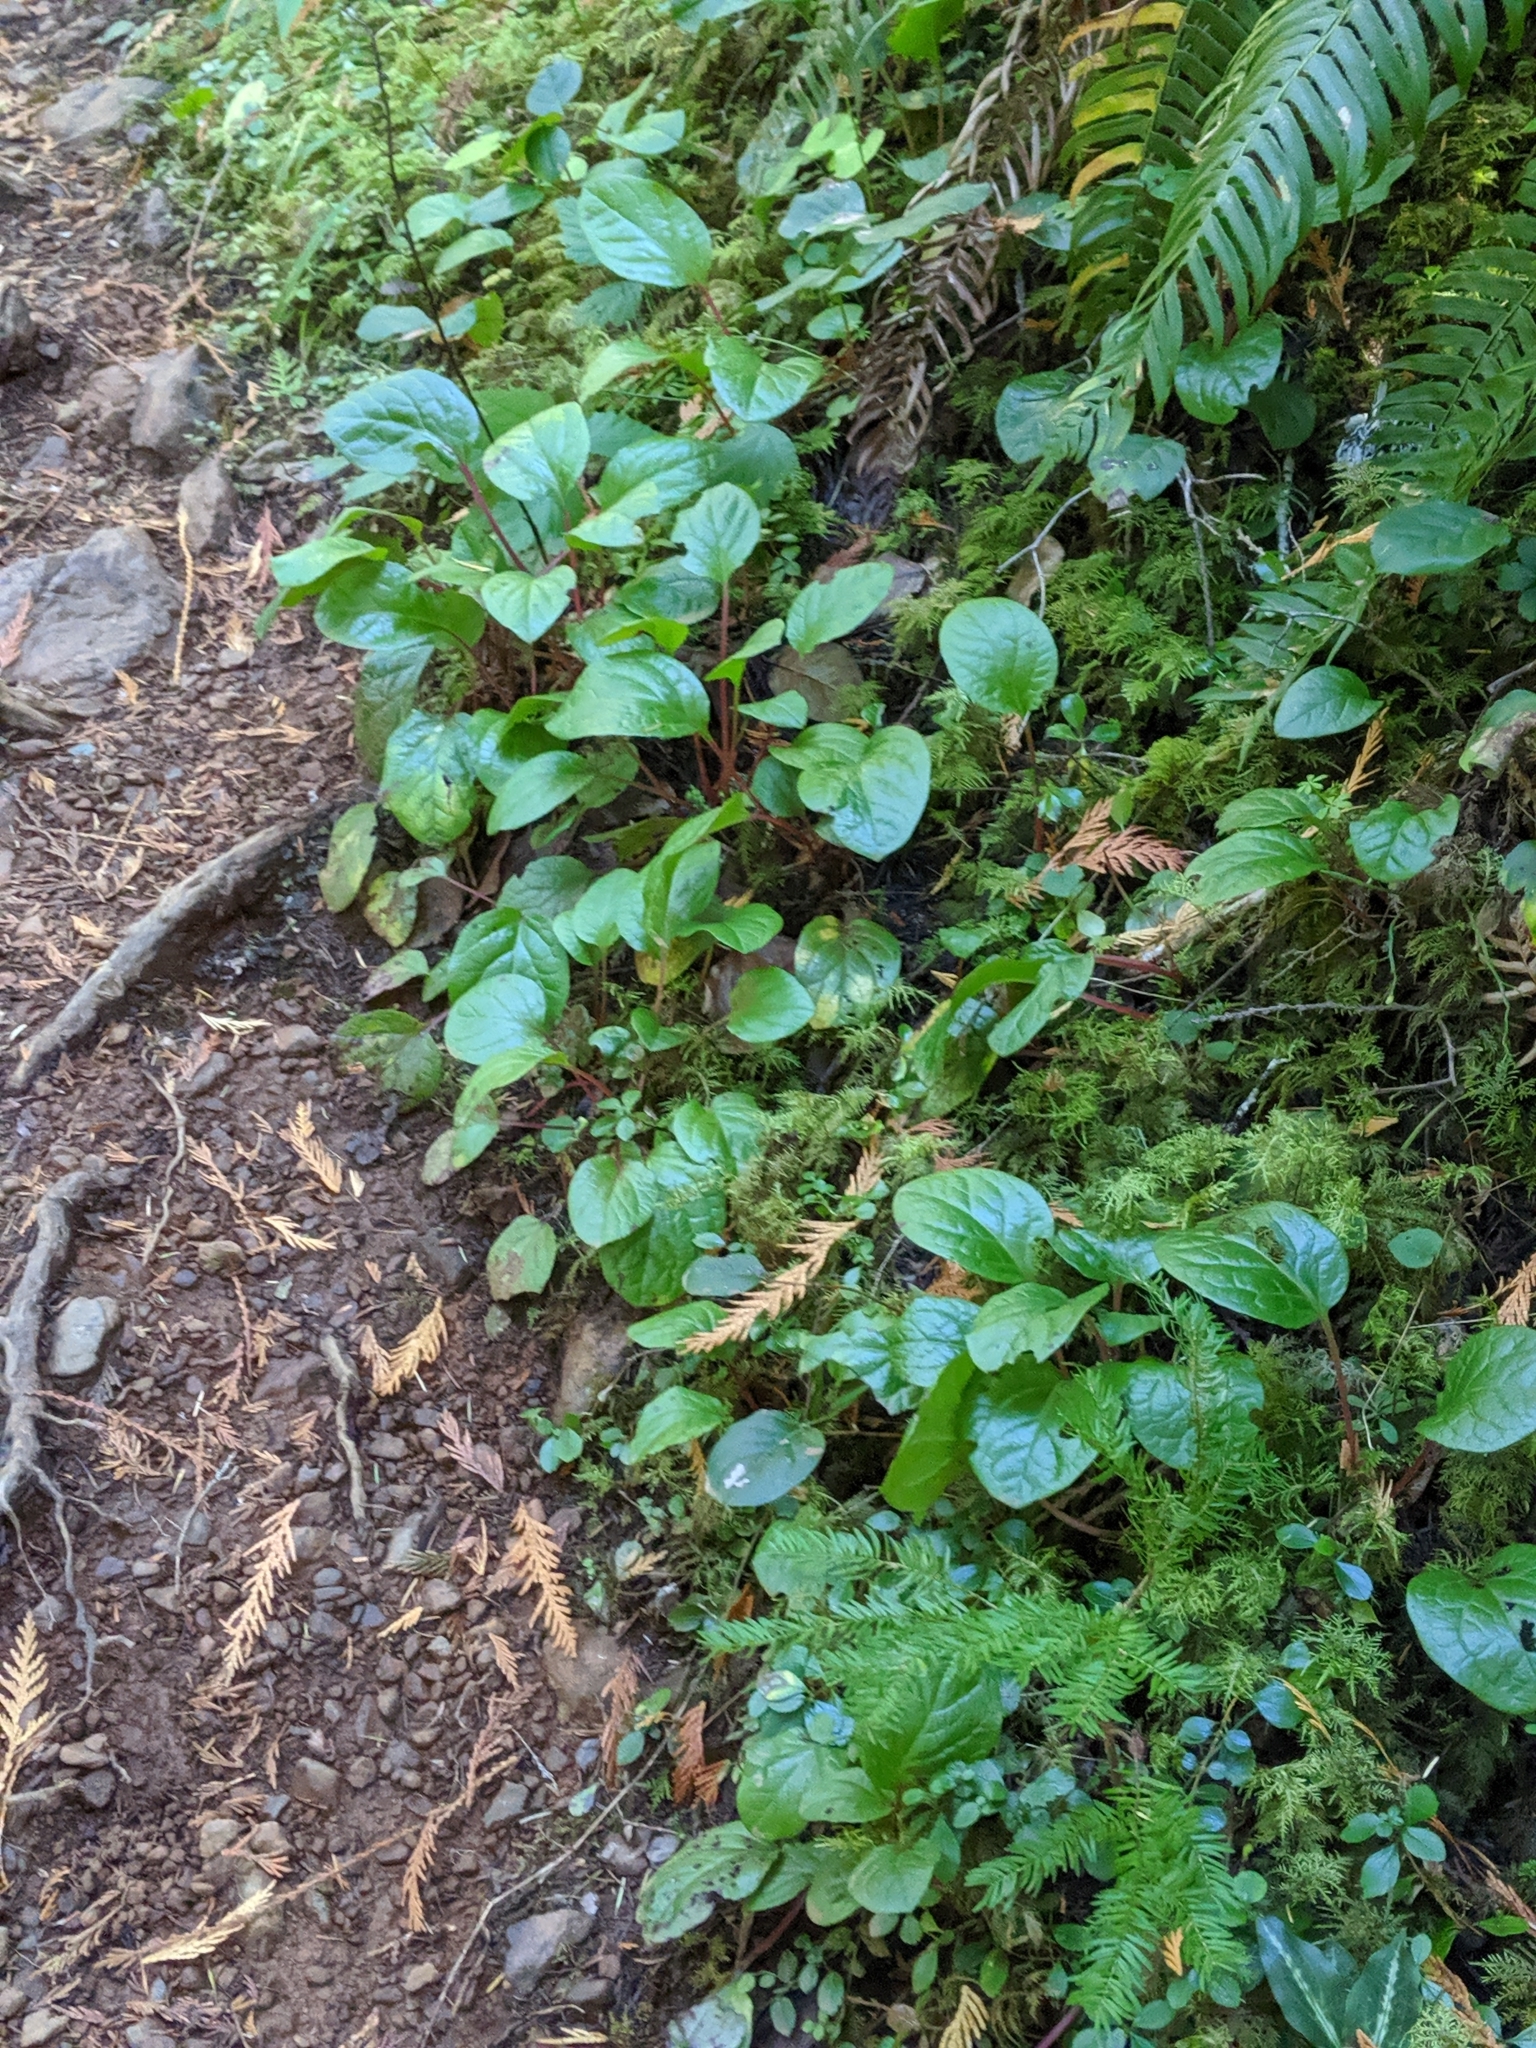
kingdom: Plantae
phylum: Tracheophyta
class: Magnoliopsida
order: Ericales
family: Ericaceae
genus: Pyrola
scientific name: Pyrola asarifolia
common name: Bog wintergreen
